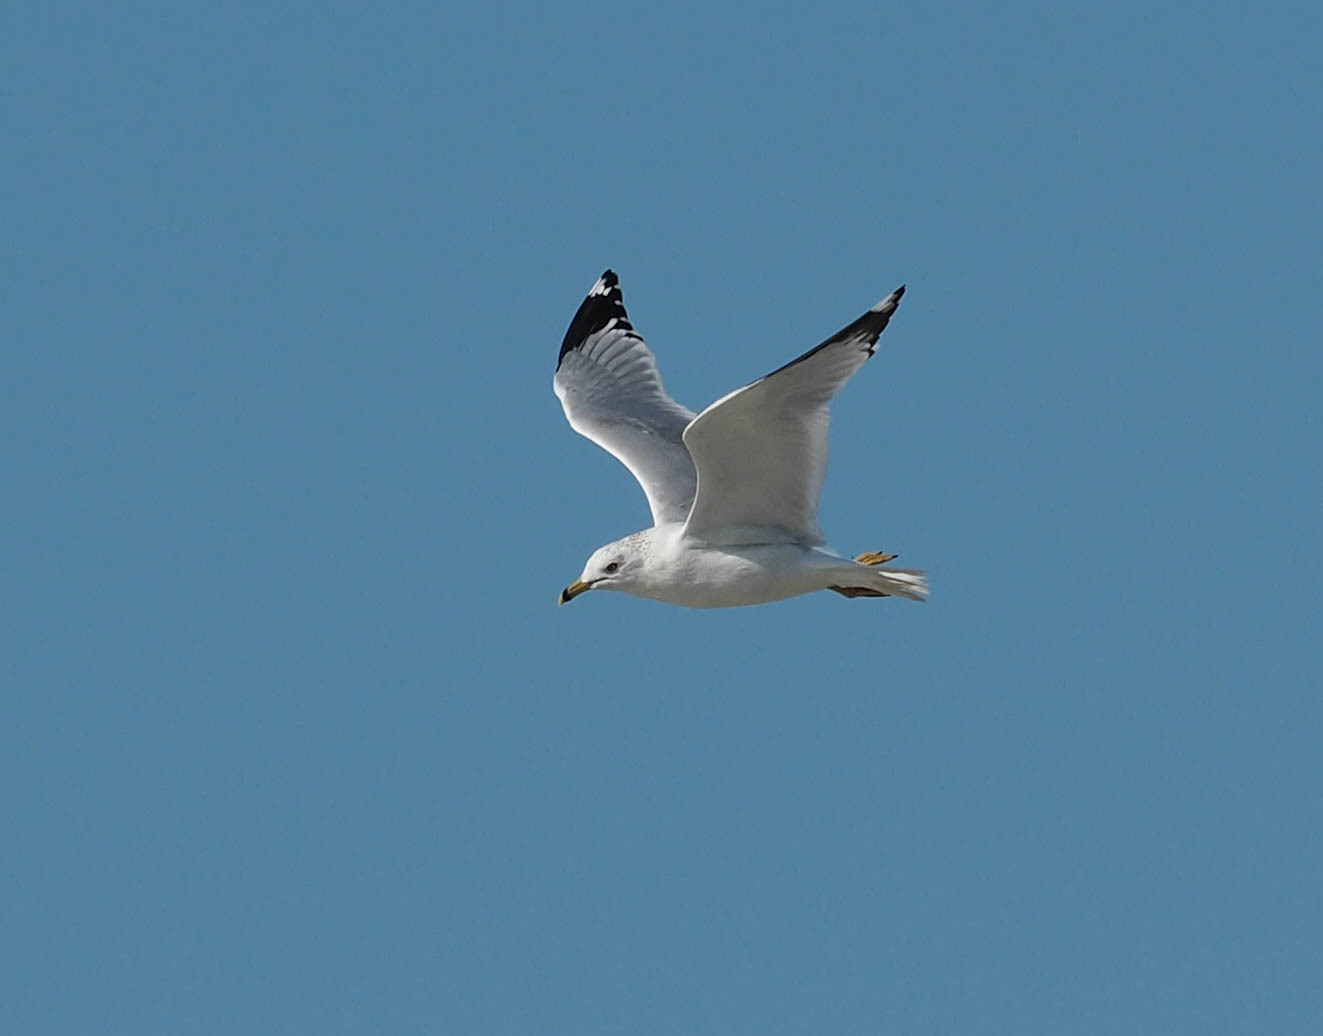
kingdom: Animalia
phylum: Chordata
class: Aves
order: Charadriiformes
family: Laridae
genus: Larus
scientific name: Larus delawarensis
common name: Ring-billed gull
